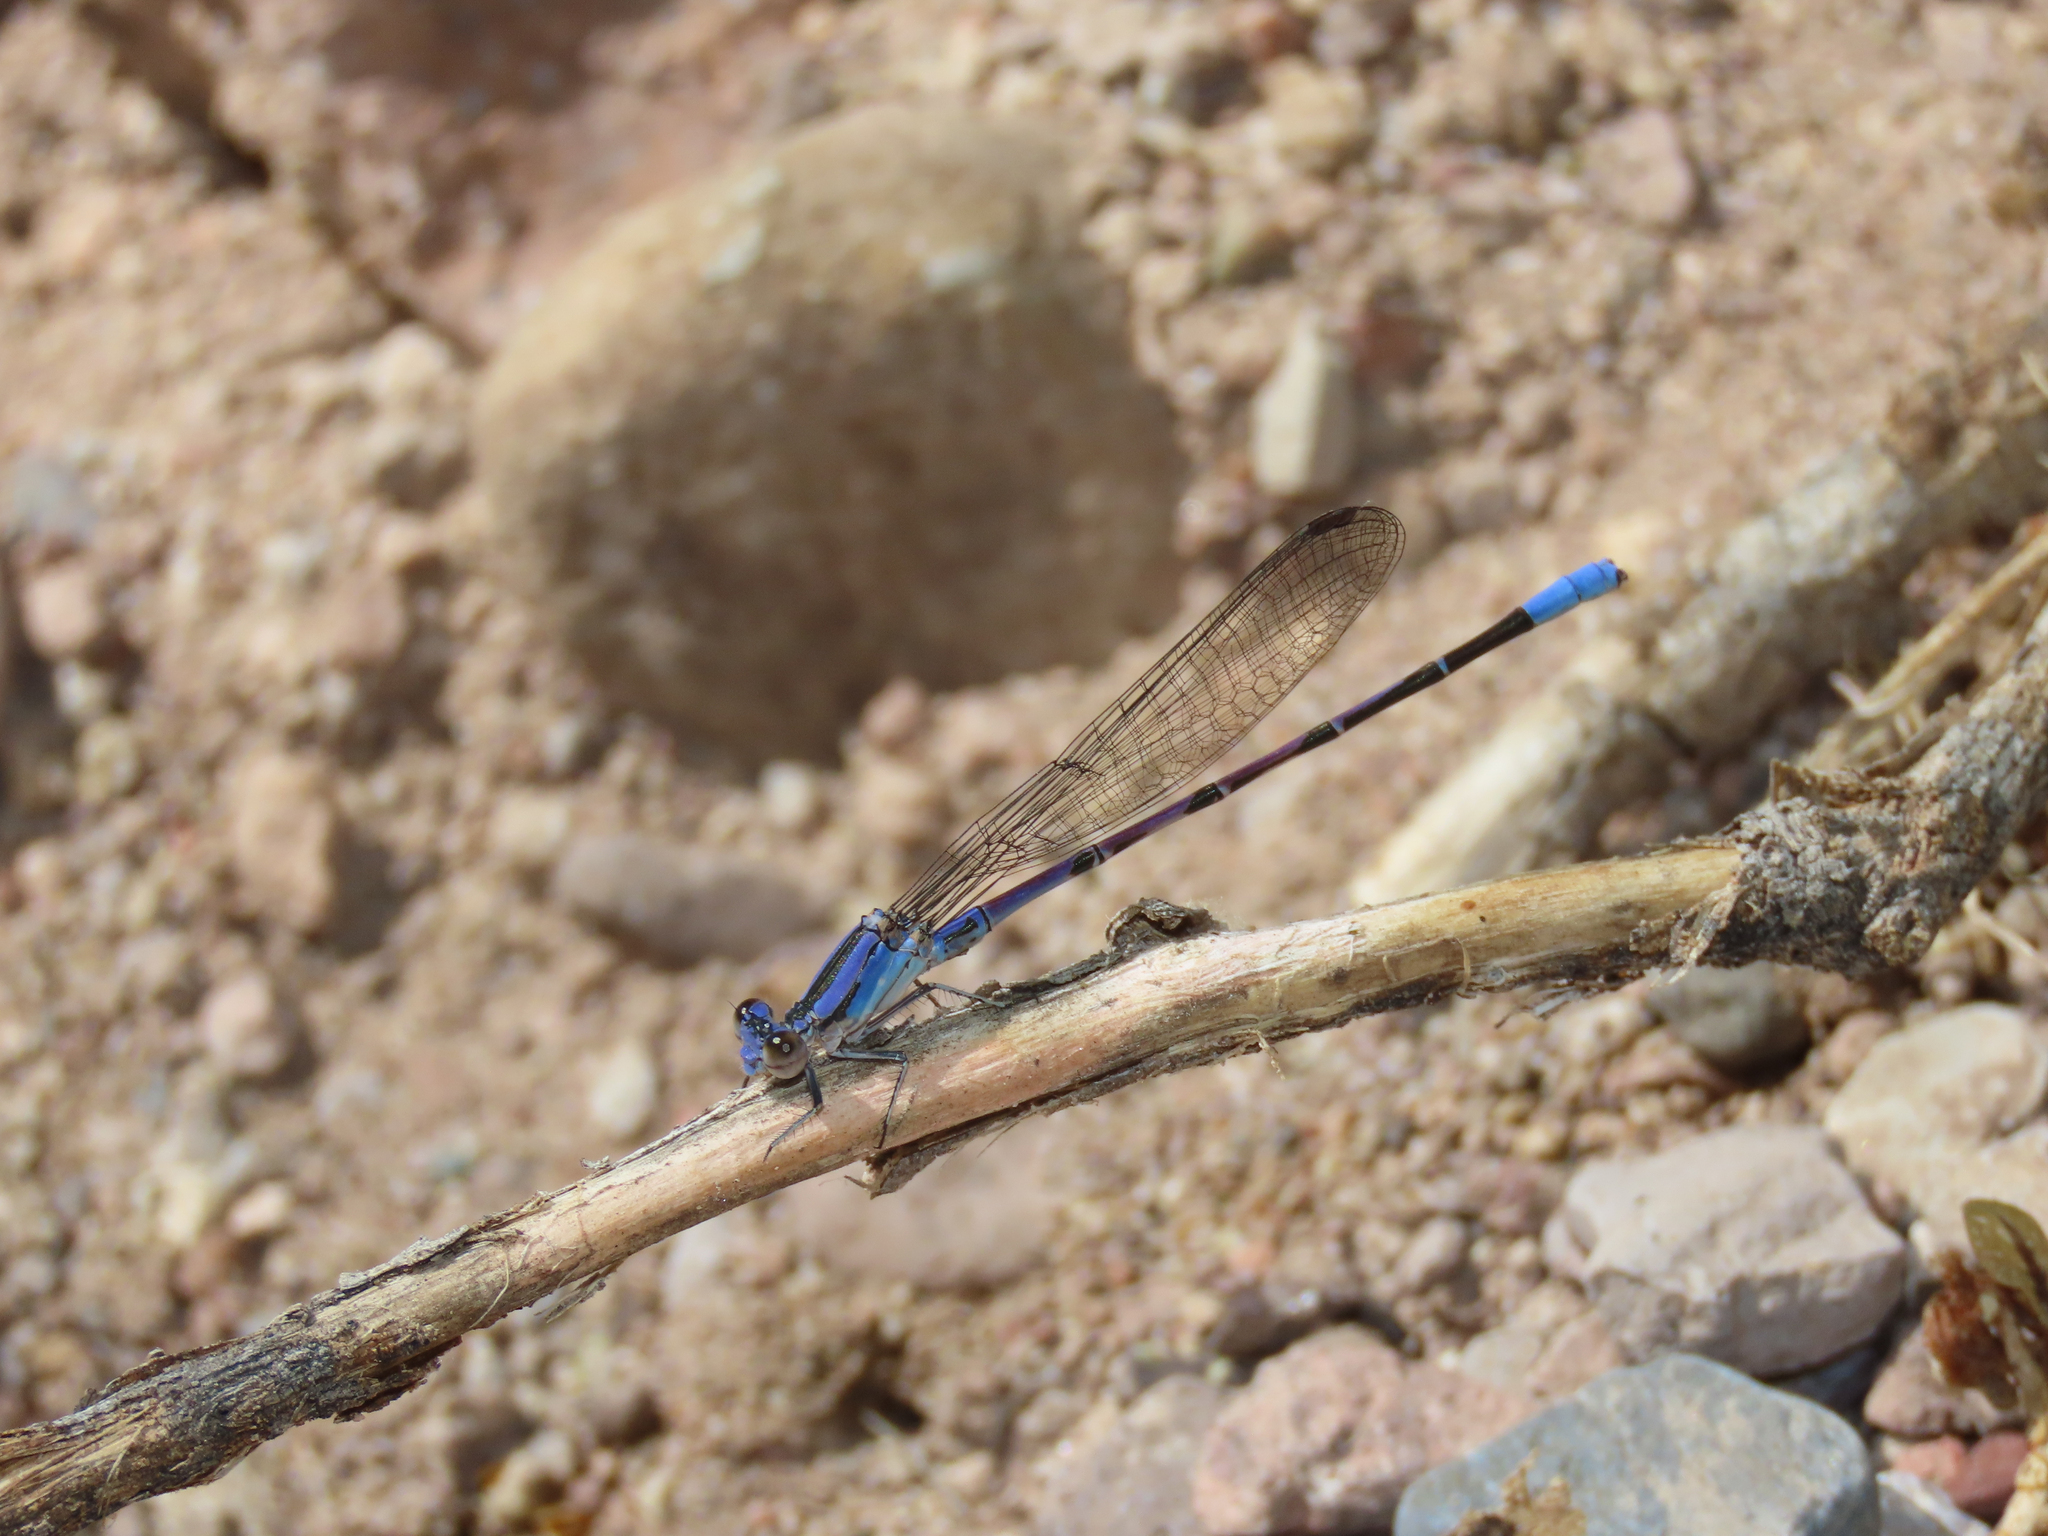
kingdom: Animalia
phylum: Arthropoda
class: Insecta
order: Odonata
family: Coenagrionidae
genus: Argia
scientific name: Argia funebris
